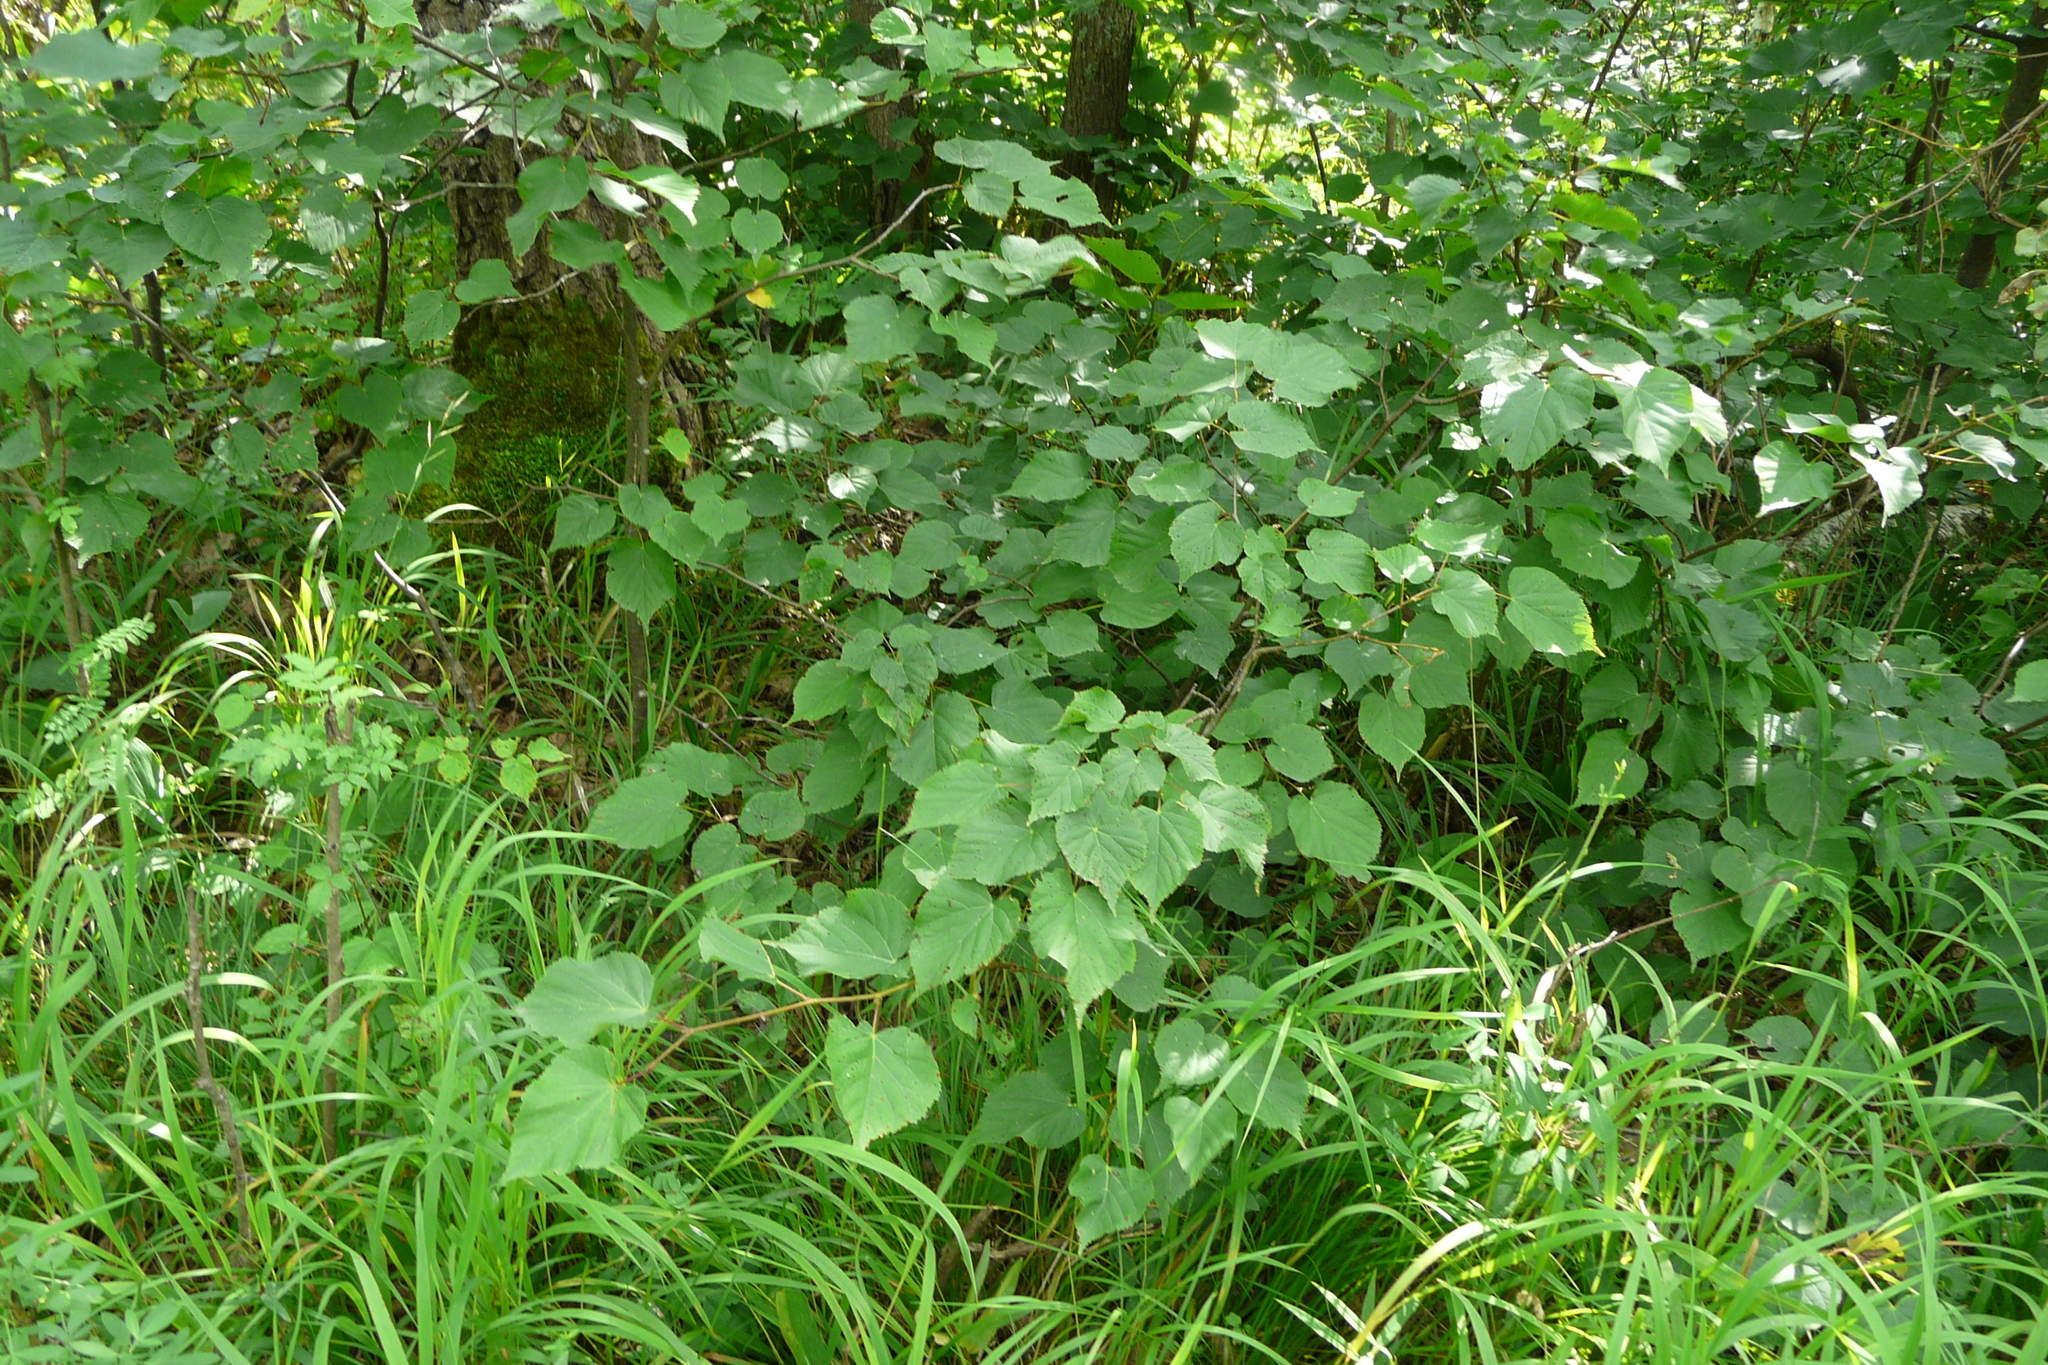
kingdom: Plantae
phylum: Tracheophyta
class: Magnoliopsida
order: Malvales
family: Malvaceae
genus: Tilia
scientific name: Tilia cordata
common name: Small-leaved lime
